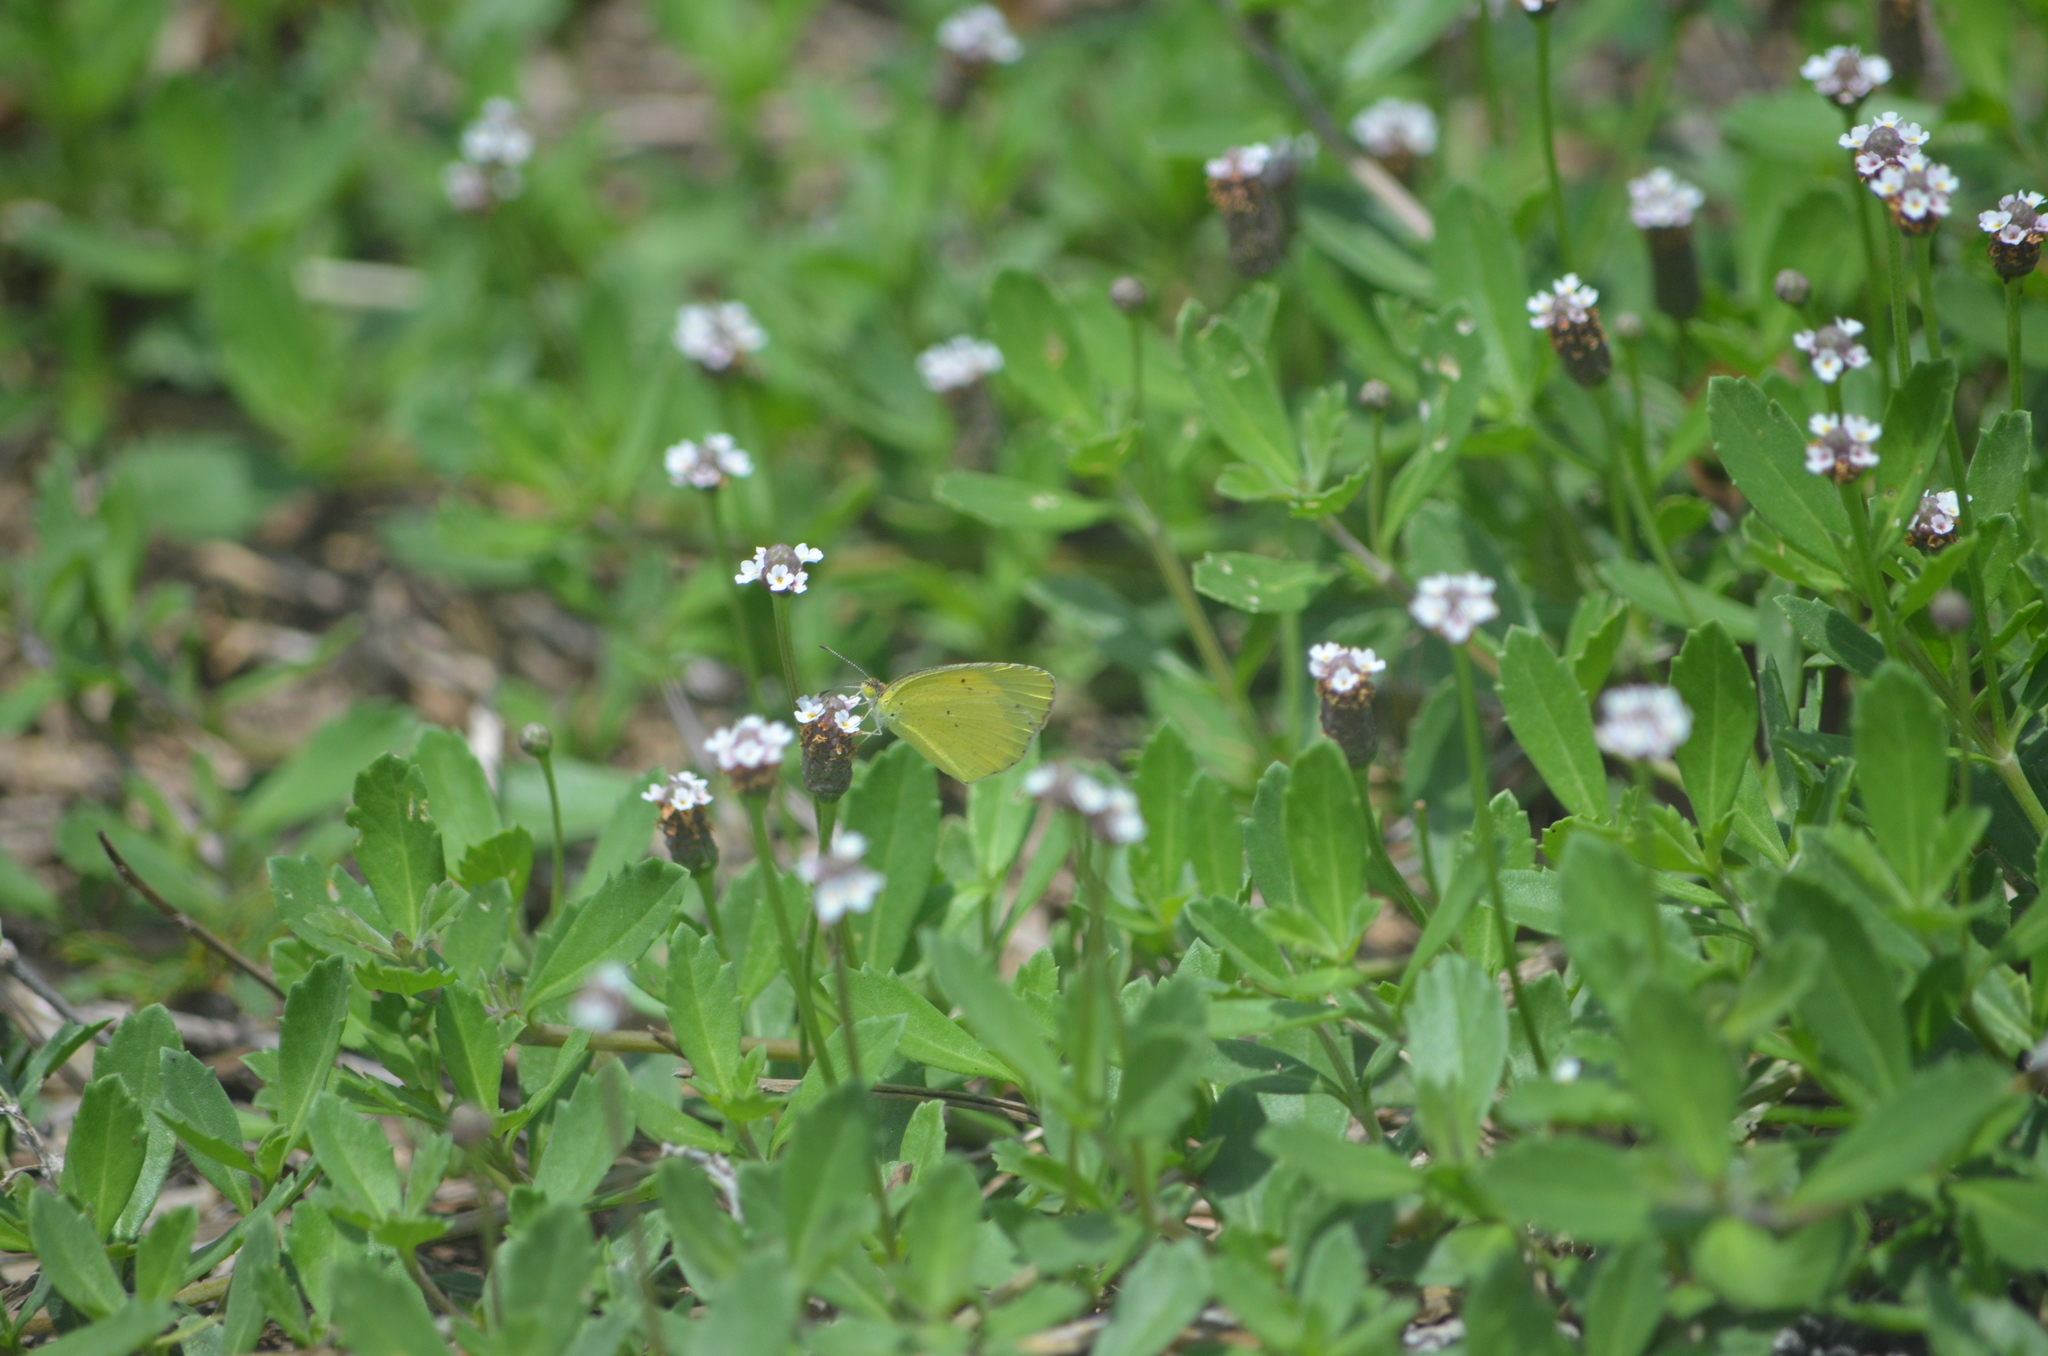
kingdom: Animalia
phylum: Arthropoda
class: Insecta
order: Lepidoptera
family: Pieridae
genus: Pyrisitia
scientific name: Pyrisitia lisa
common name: Little yellow
